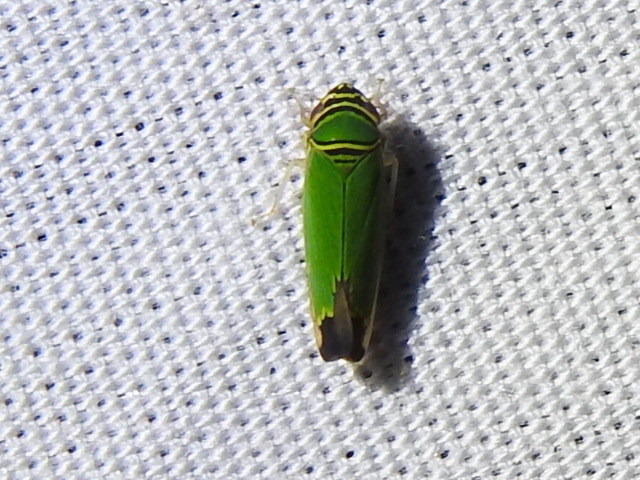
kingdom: Animalia
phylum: Arthropoda
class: Insecta
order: Hemiptera
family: Cicadellidae
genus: Tylozygus
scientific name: Tylozygus geometricus
